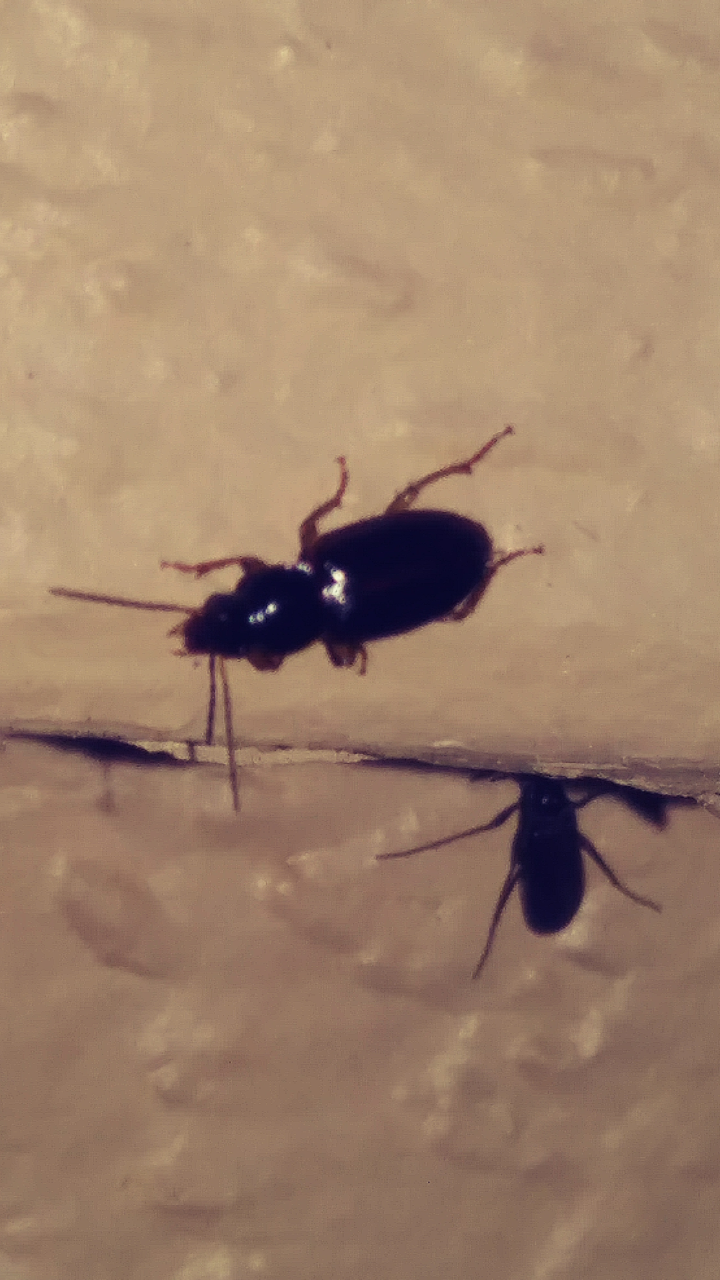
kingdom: Animalia
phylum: Arthropoda
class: Insecta
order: Coleoptera
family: Carabidae
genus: Stenolophus
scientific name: Stenolophus ochropezus
